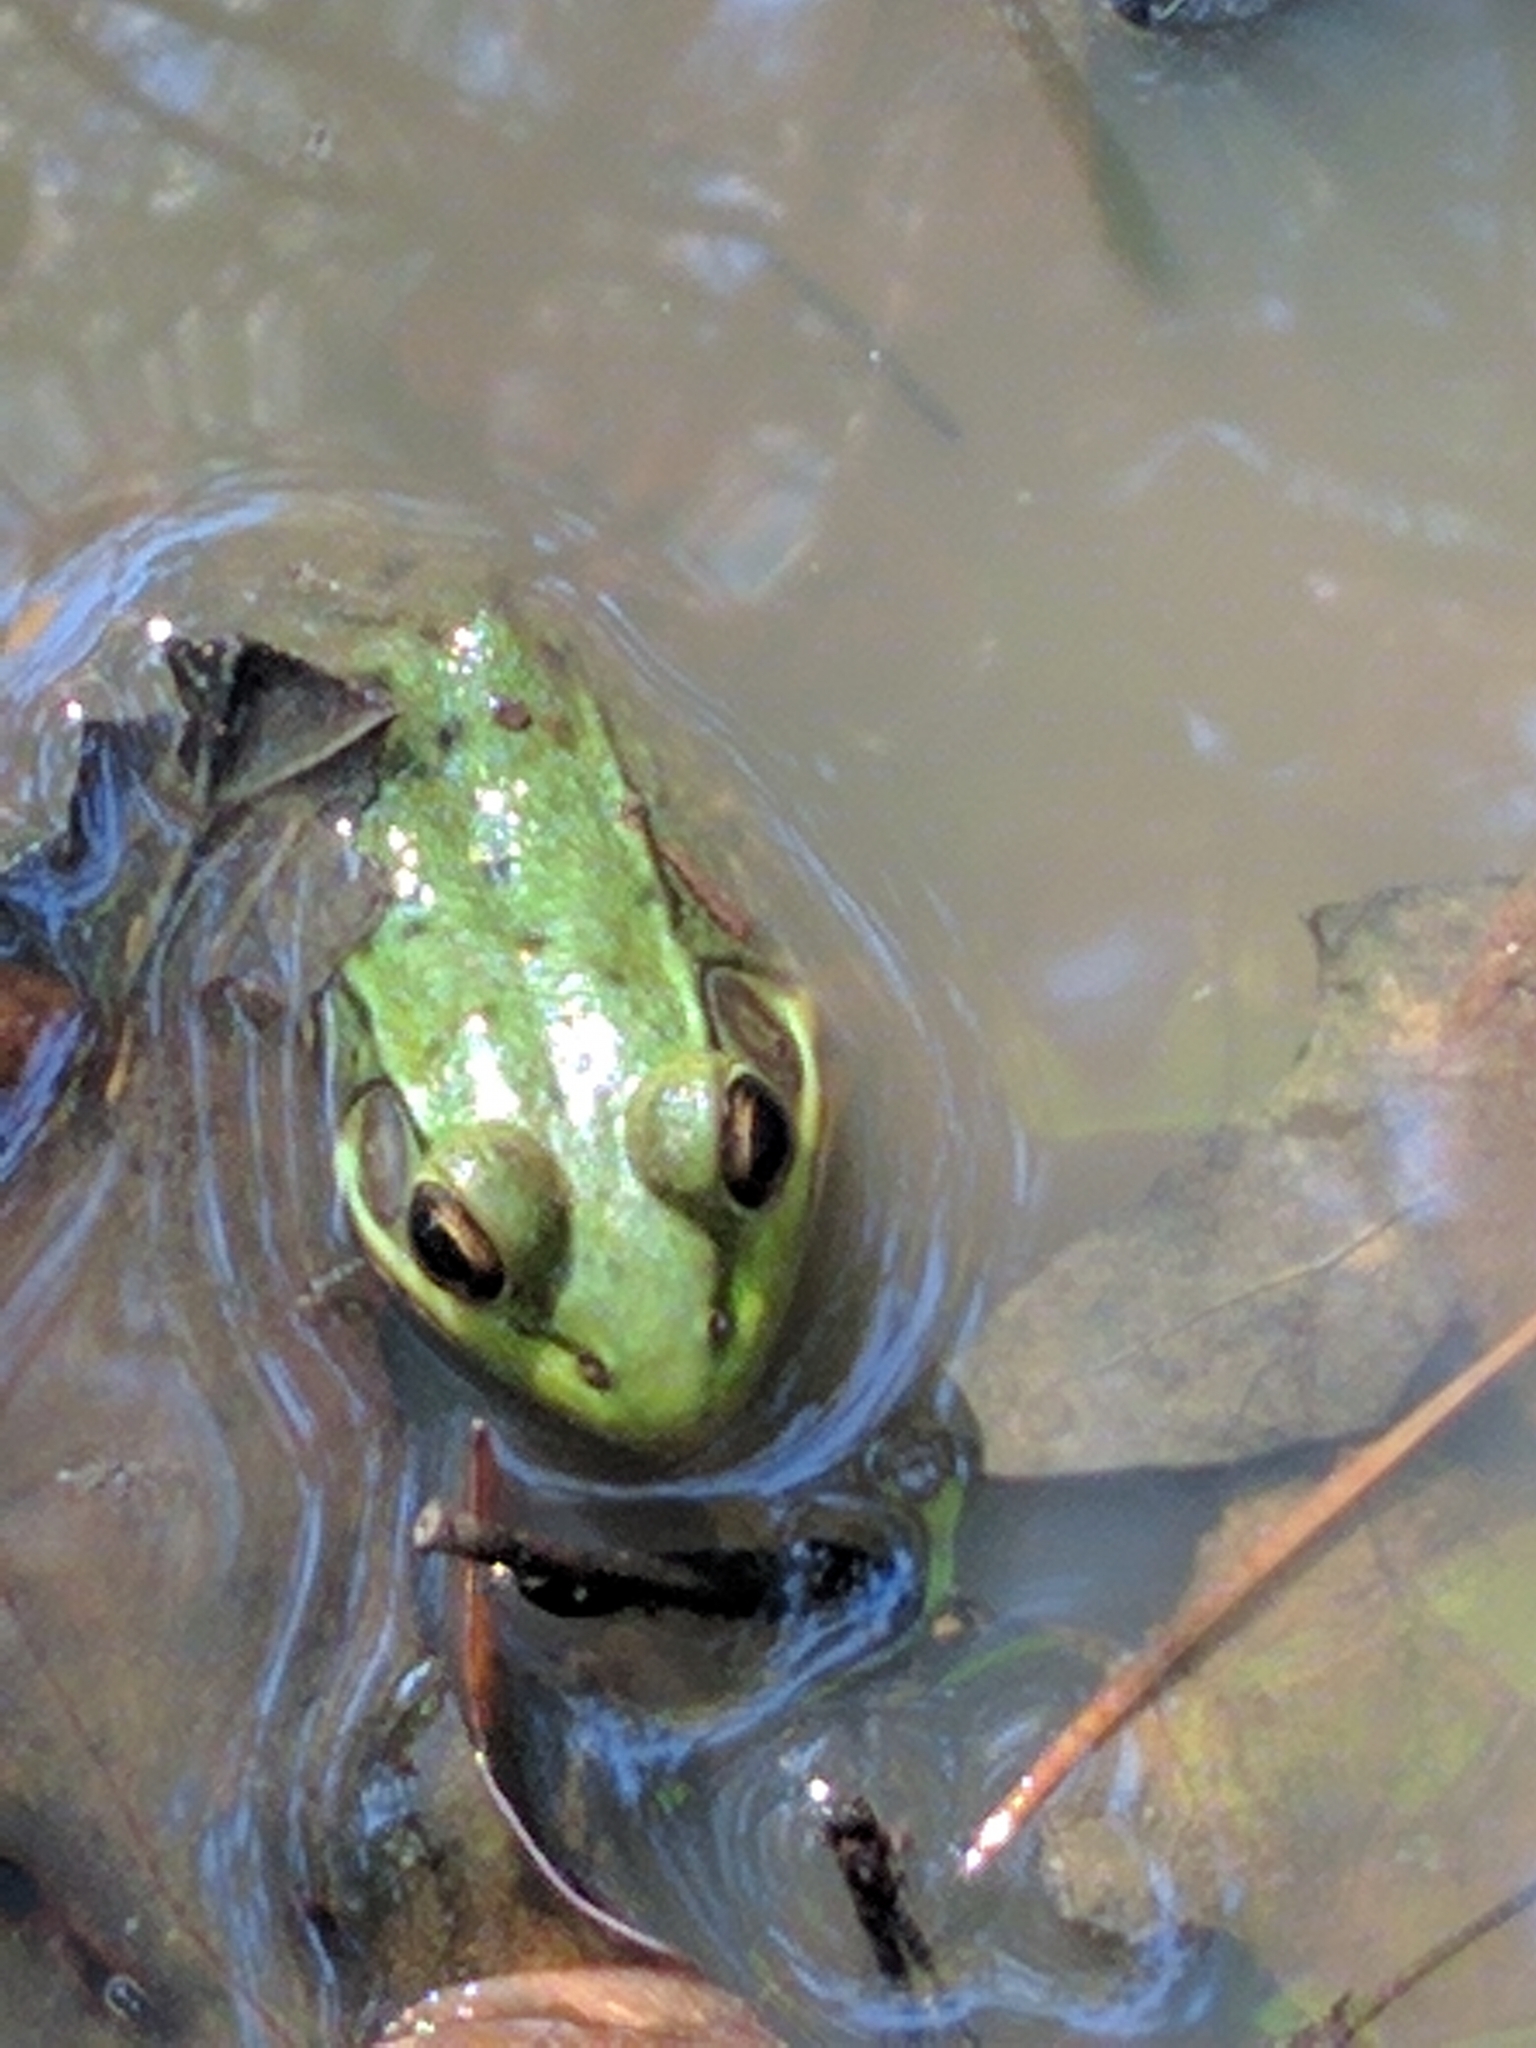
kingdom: Animalia
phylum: Chordata
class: Amphibia
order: Anura
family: Ranidae
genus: Lithobates
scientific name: Lithobates clamitans
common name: Green frog
